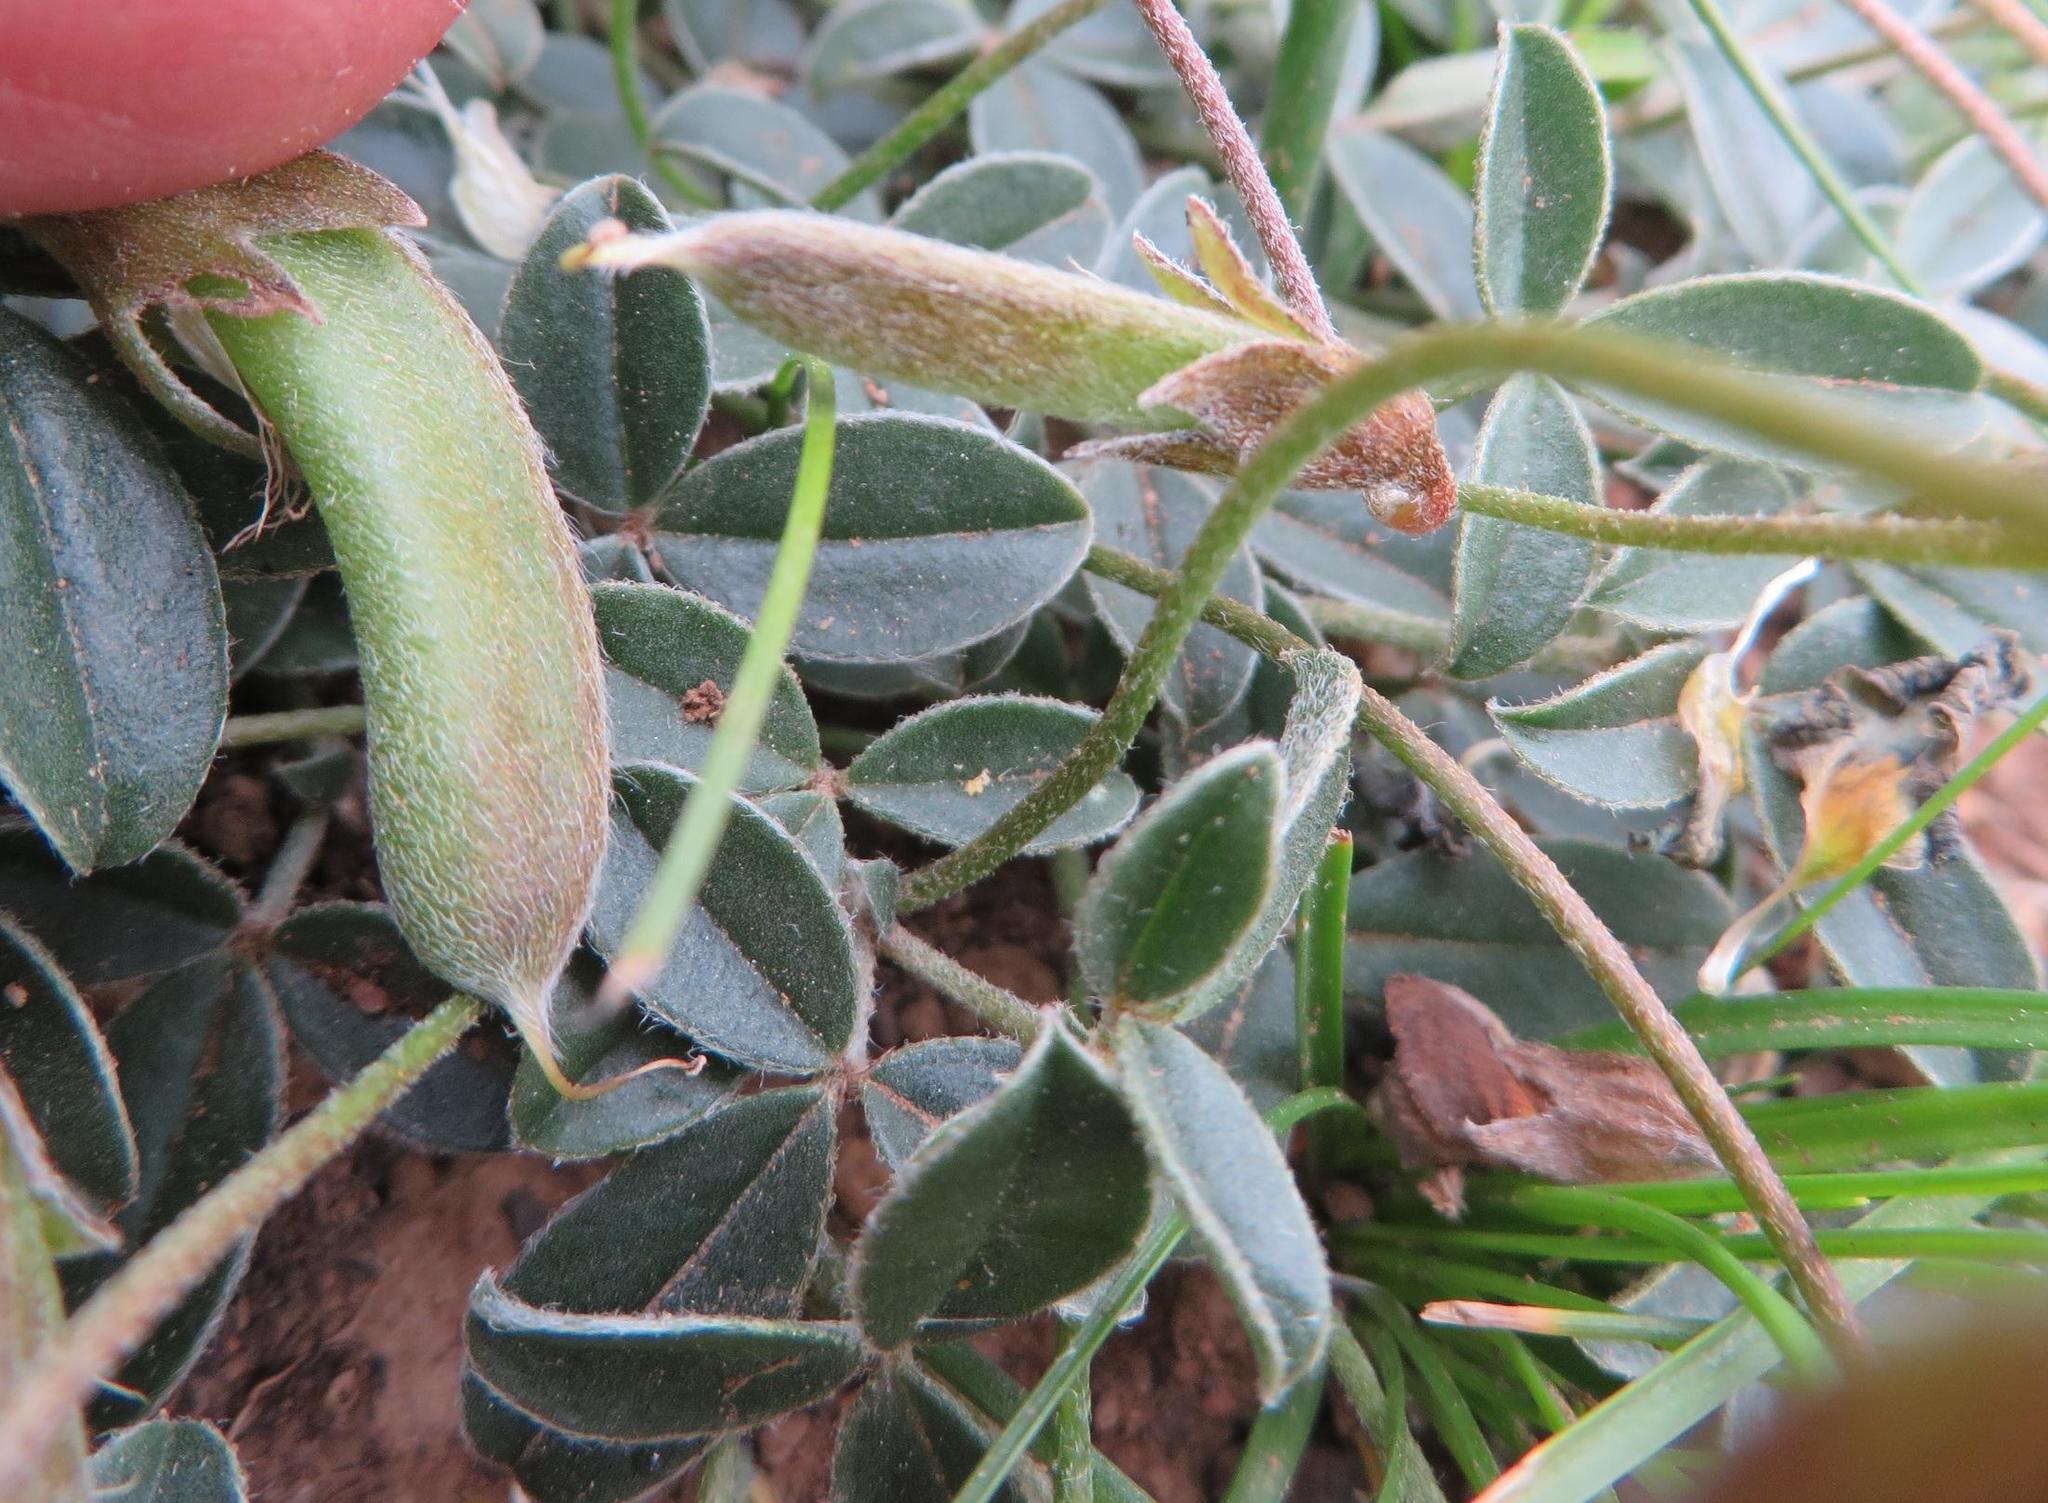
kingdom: Plantae
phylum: Tracheophyta
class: Magnoliopsida
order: Fabales
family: Fabaceae
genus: Lotononis
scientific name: Lotononis prostrata
